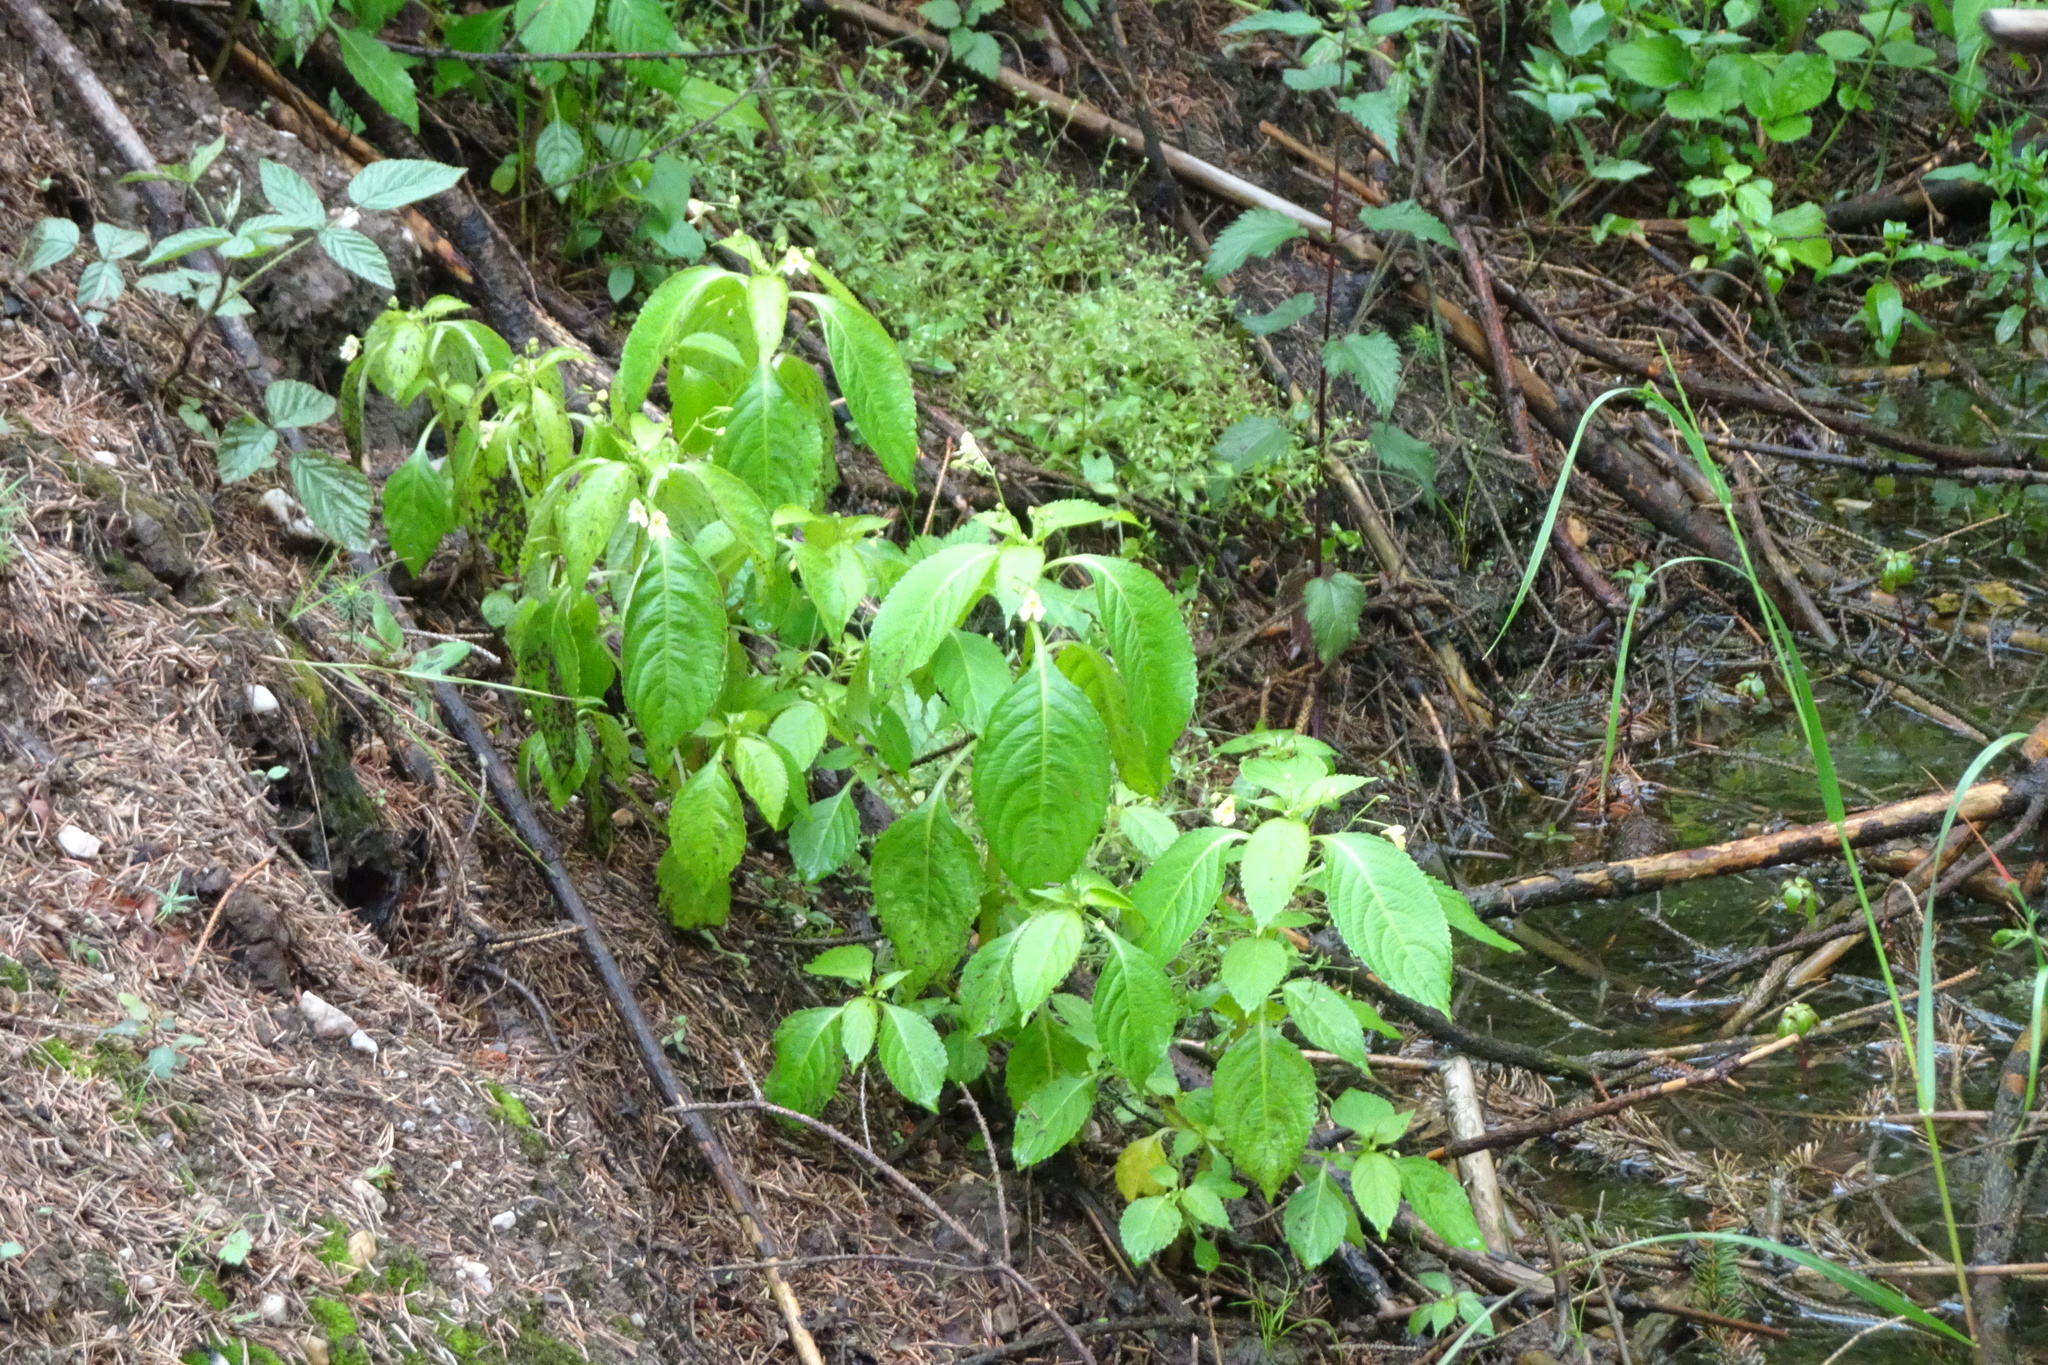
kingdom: Plantae
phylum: Tracheophyta
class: Magnoliopsida
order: Ericales
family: Balsaminaceae
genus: Impatiens
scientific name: Impatiens parviflora
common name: Small balsam
